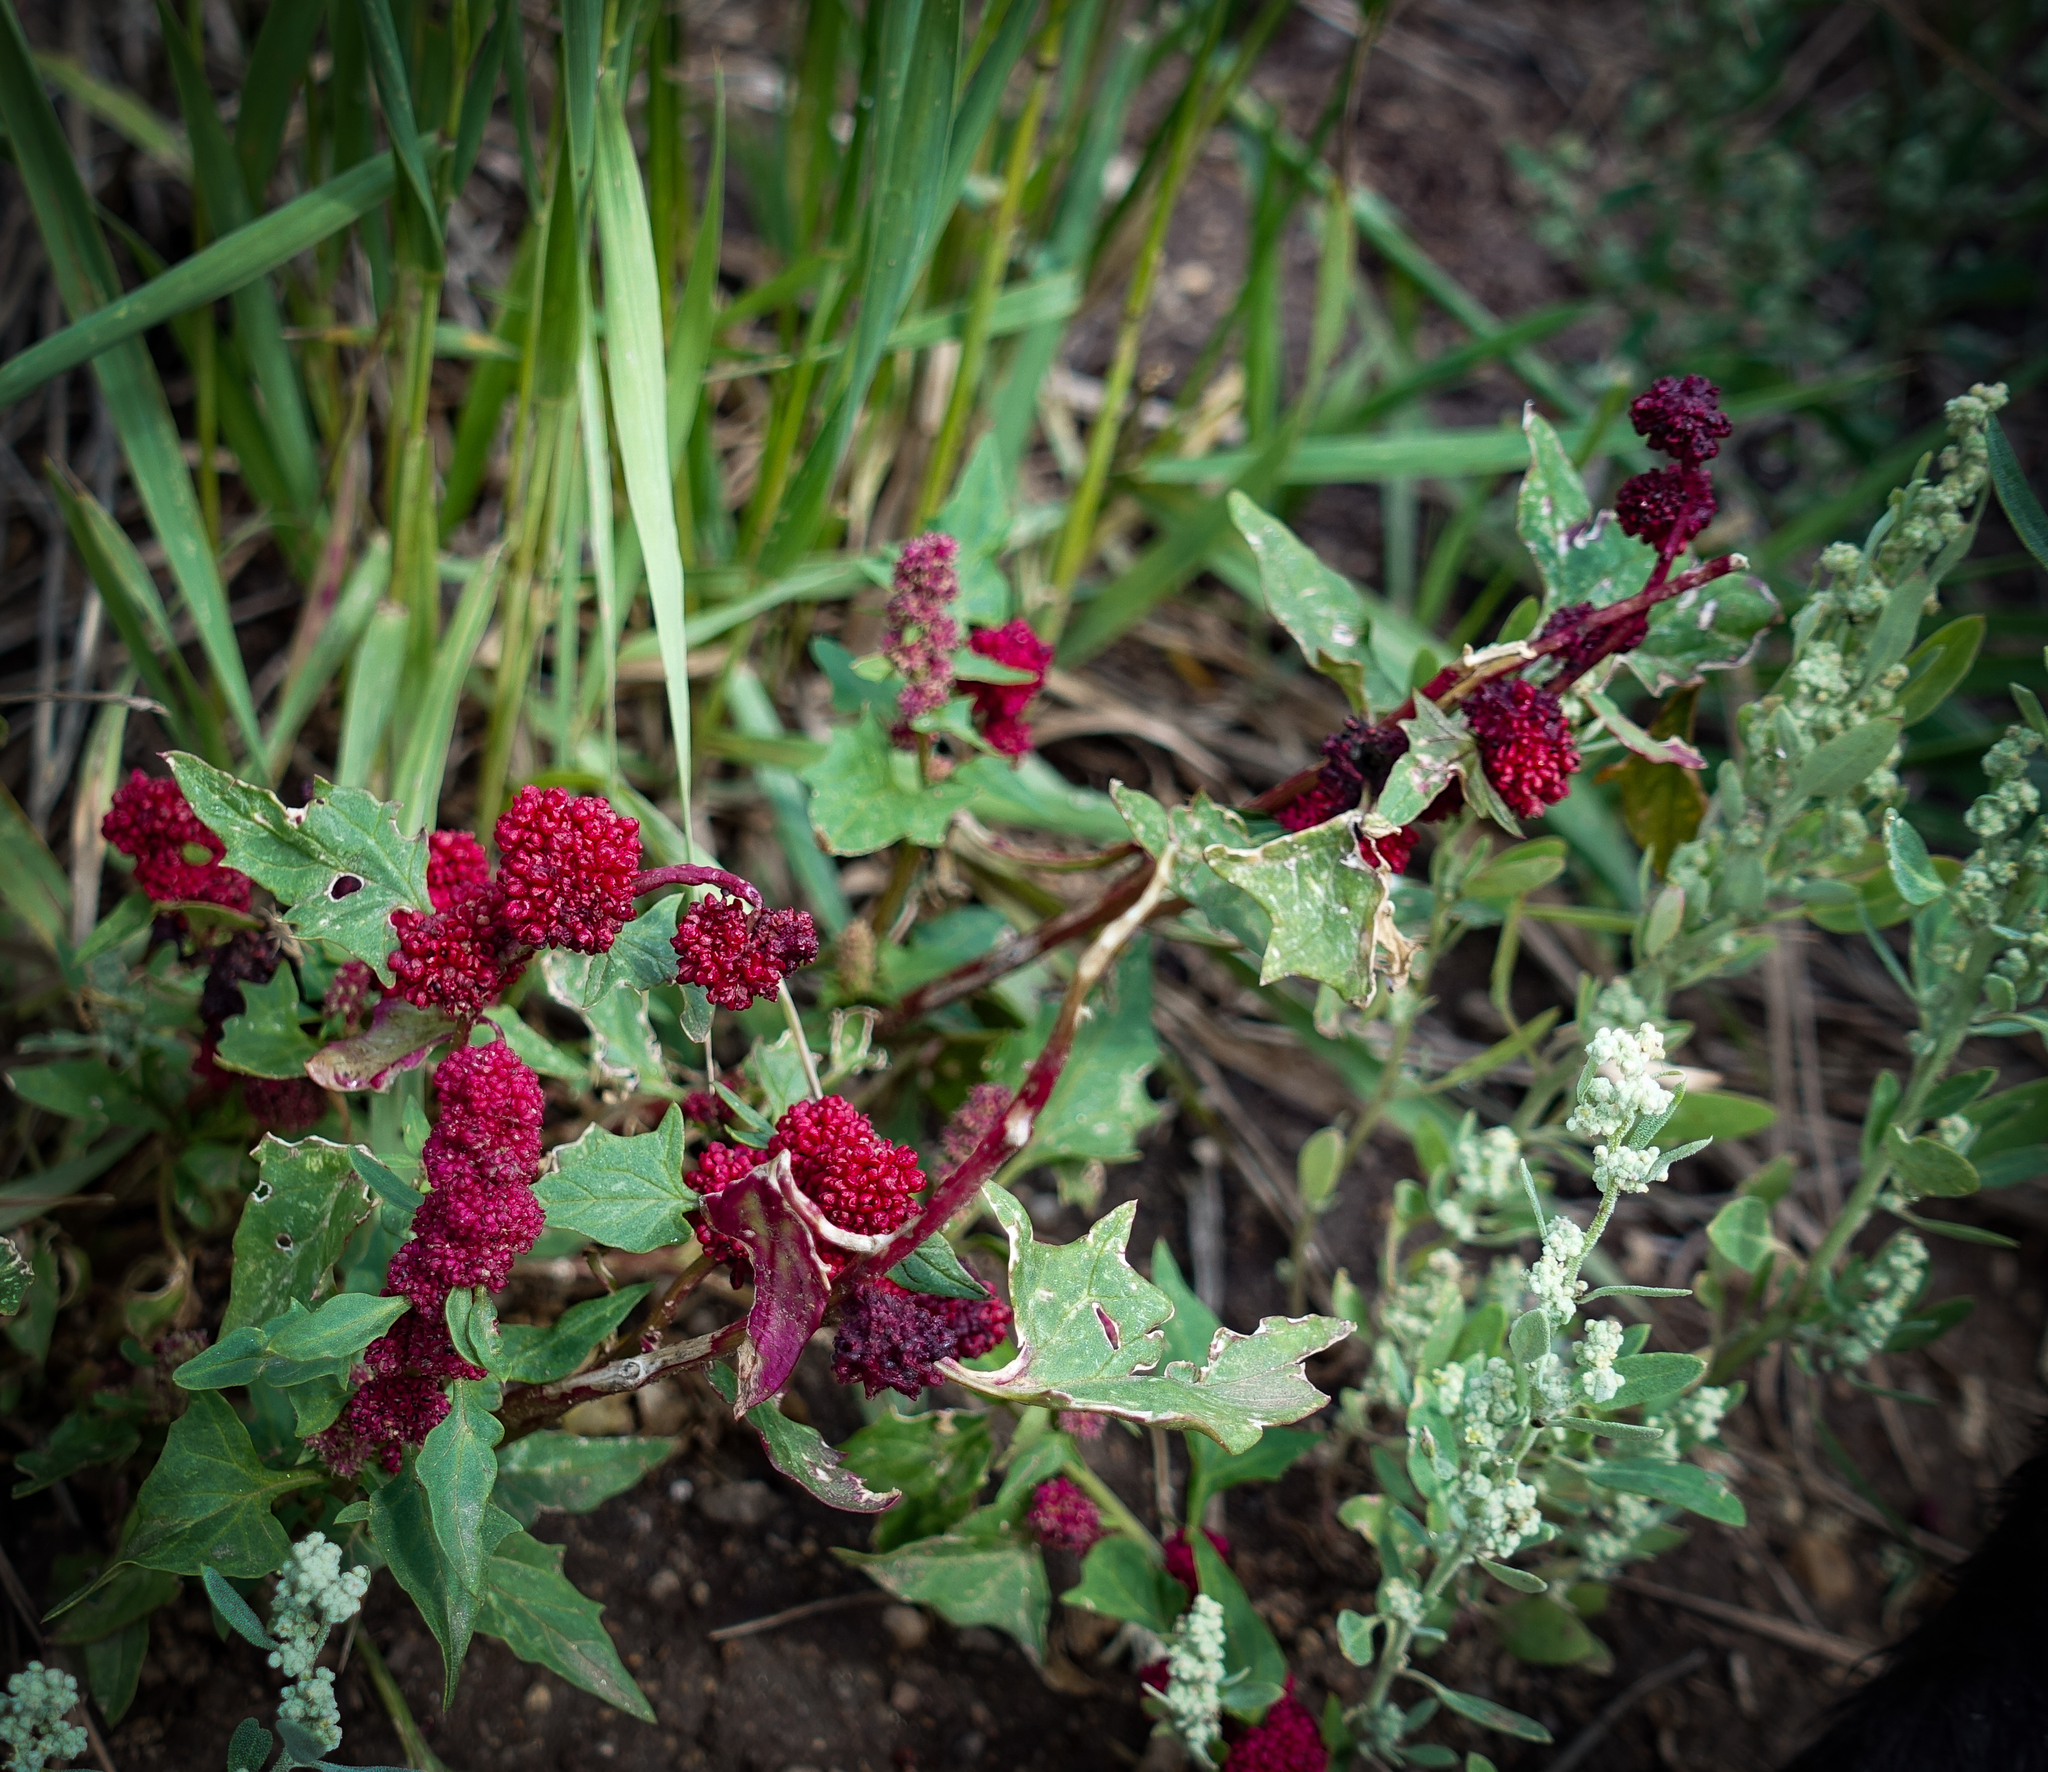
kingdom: Plantae
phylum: Tracheophyta
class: Magnoliopsida
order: Caryophyllales
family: Amaranthaceae
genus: Blitum
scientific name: Blitum capitatum
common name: Strawberry-blight
